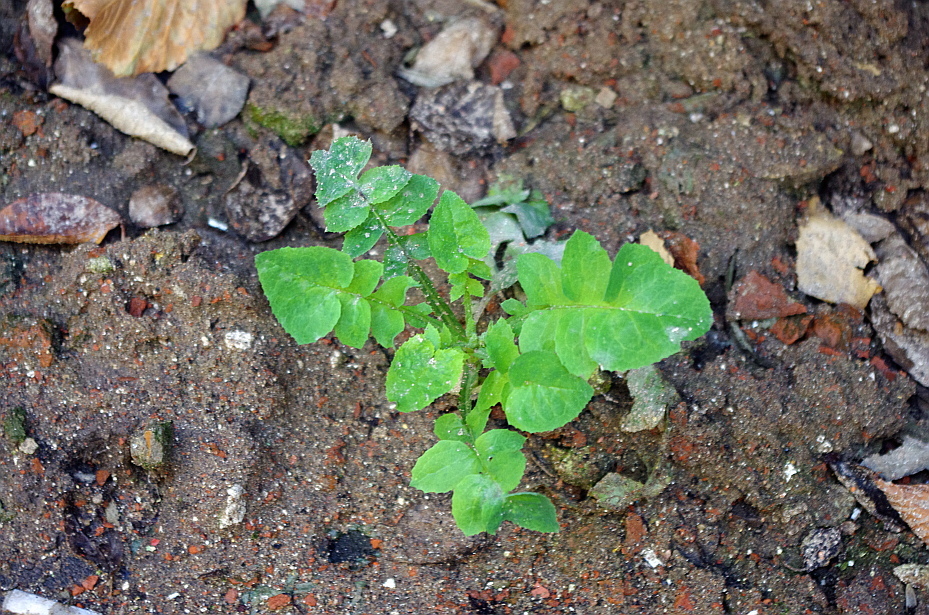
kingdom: Plantae
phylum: Tracheophyta
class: Magnoliopsida
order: Asterales
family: Asteraceae
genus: Sonchus
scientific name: Sonchus oleraceus
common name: Common sowthistle
